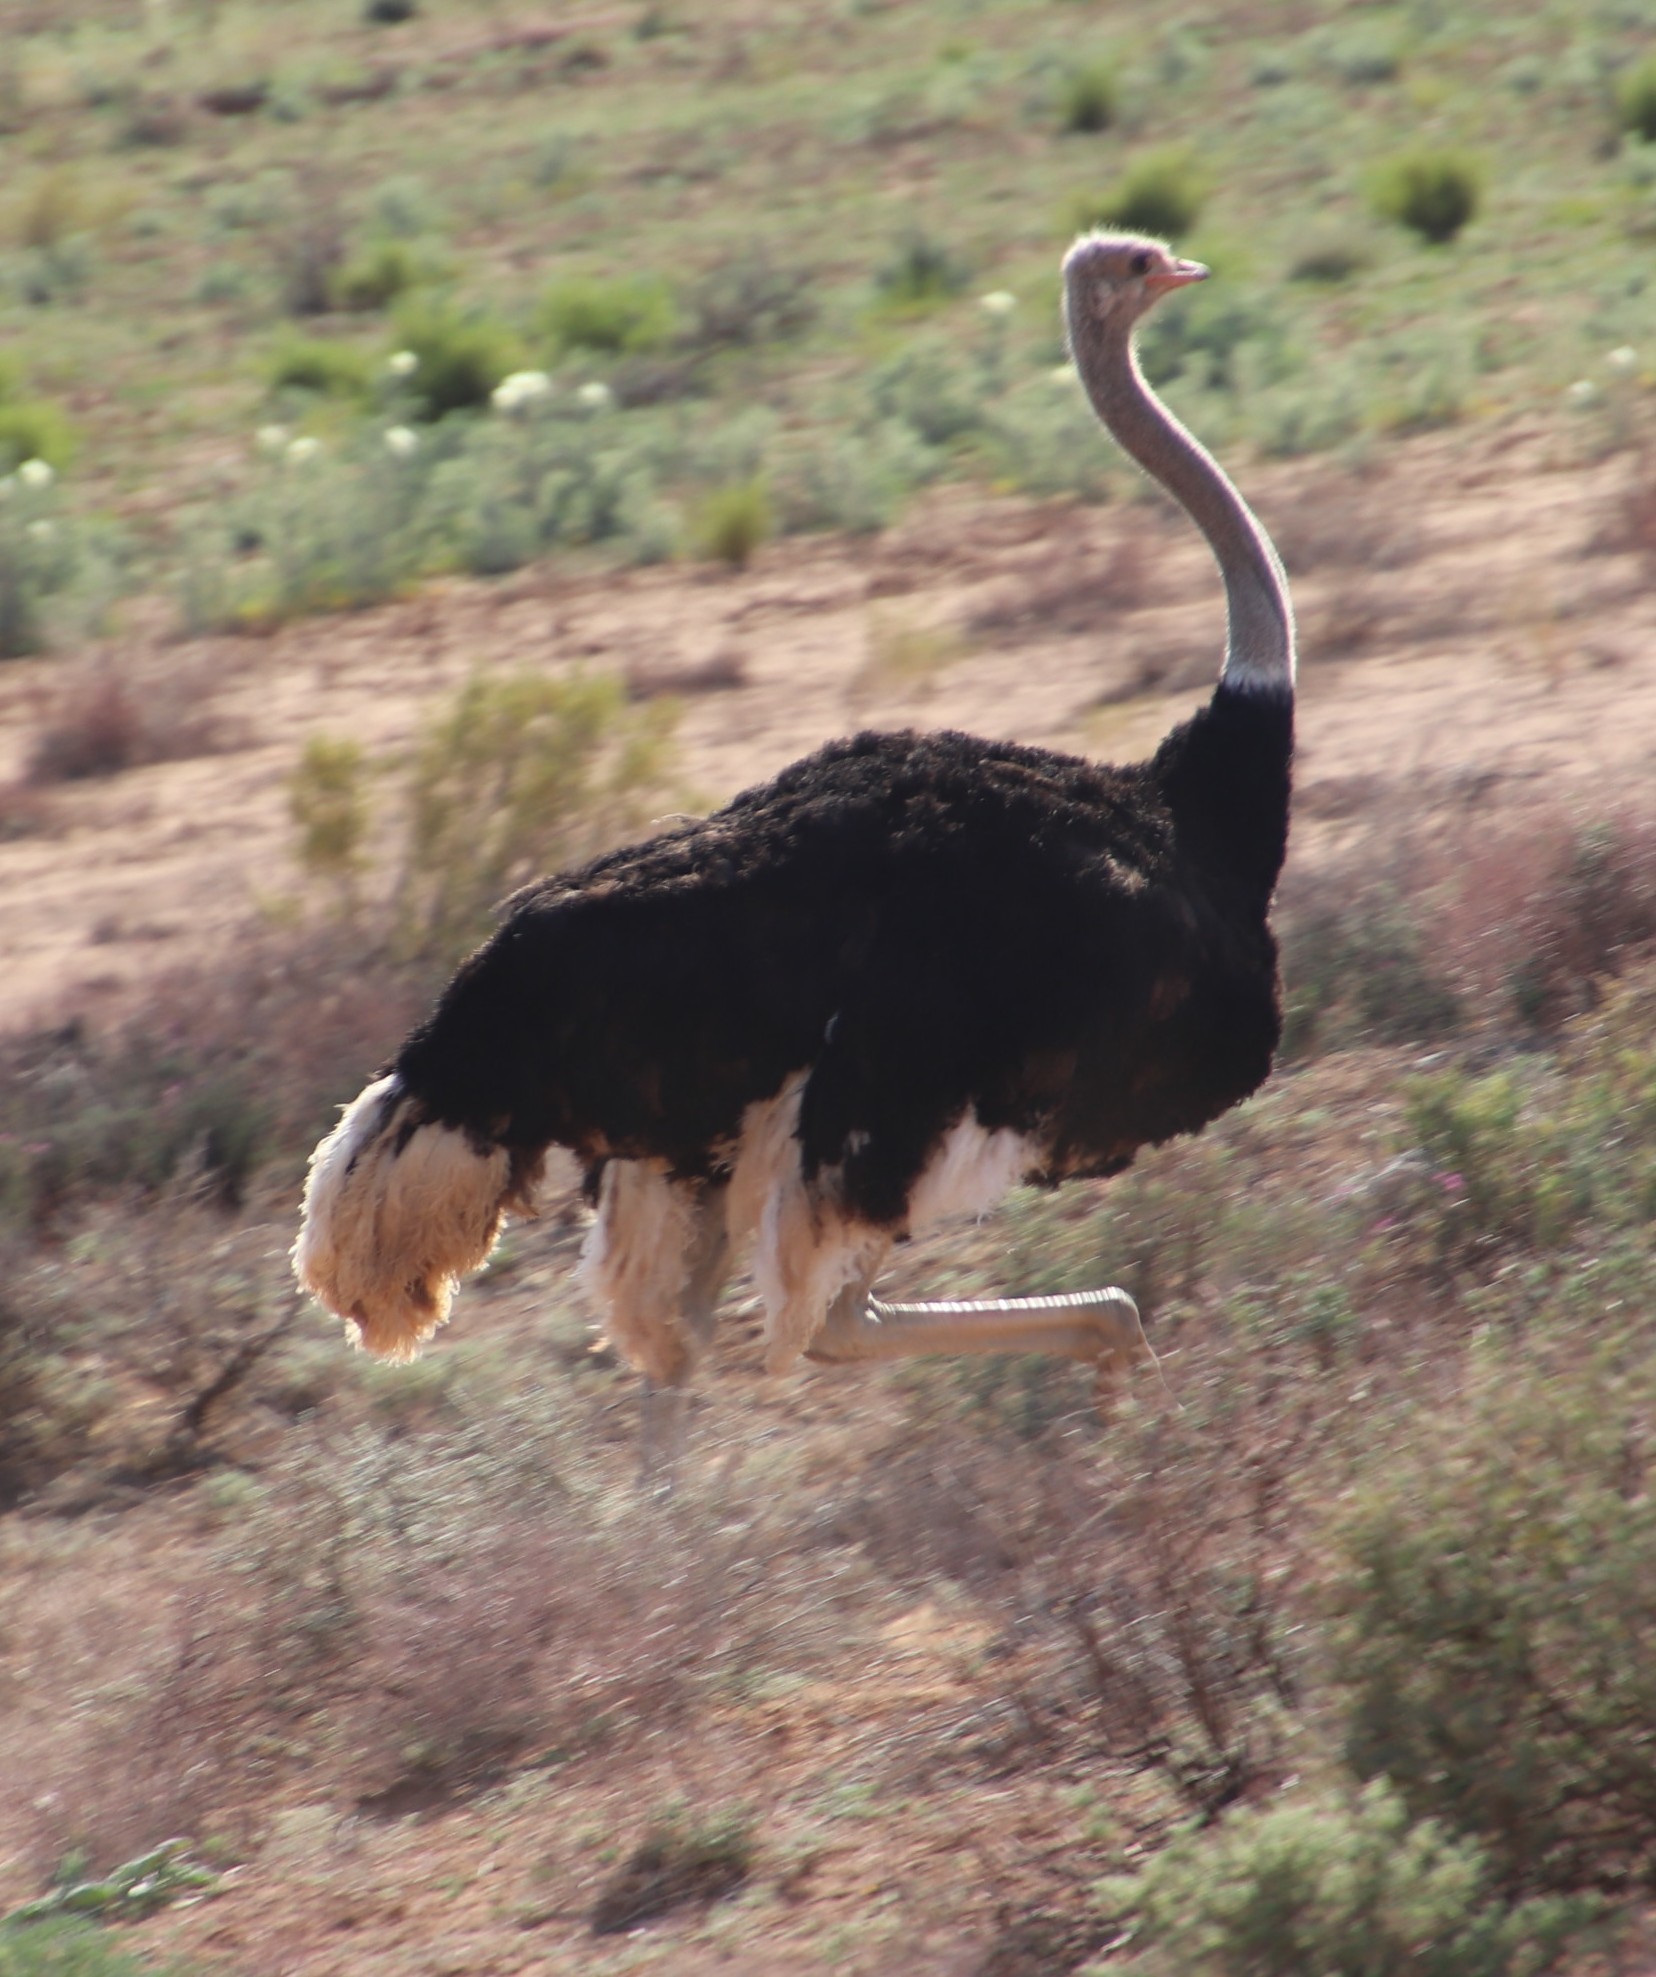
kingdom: Animalia
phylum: Chordata
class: Aves
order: Struthioniformes
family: Struthionidae
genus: Struthio
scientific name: Struthio camelus
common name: Common ostrich
